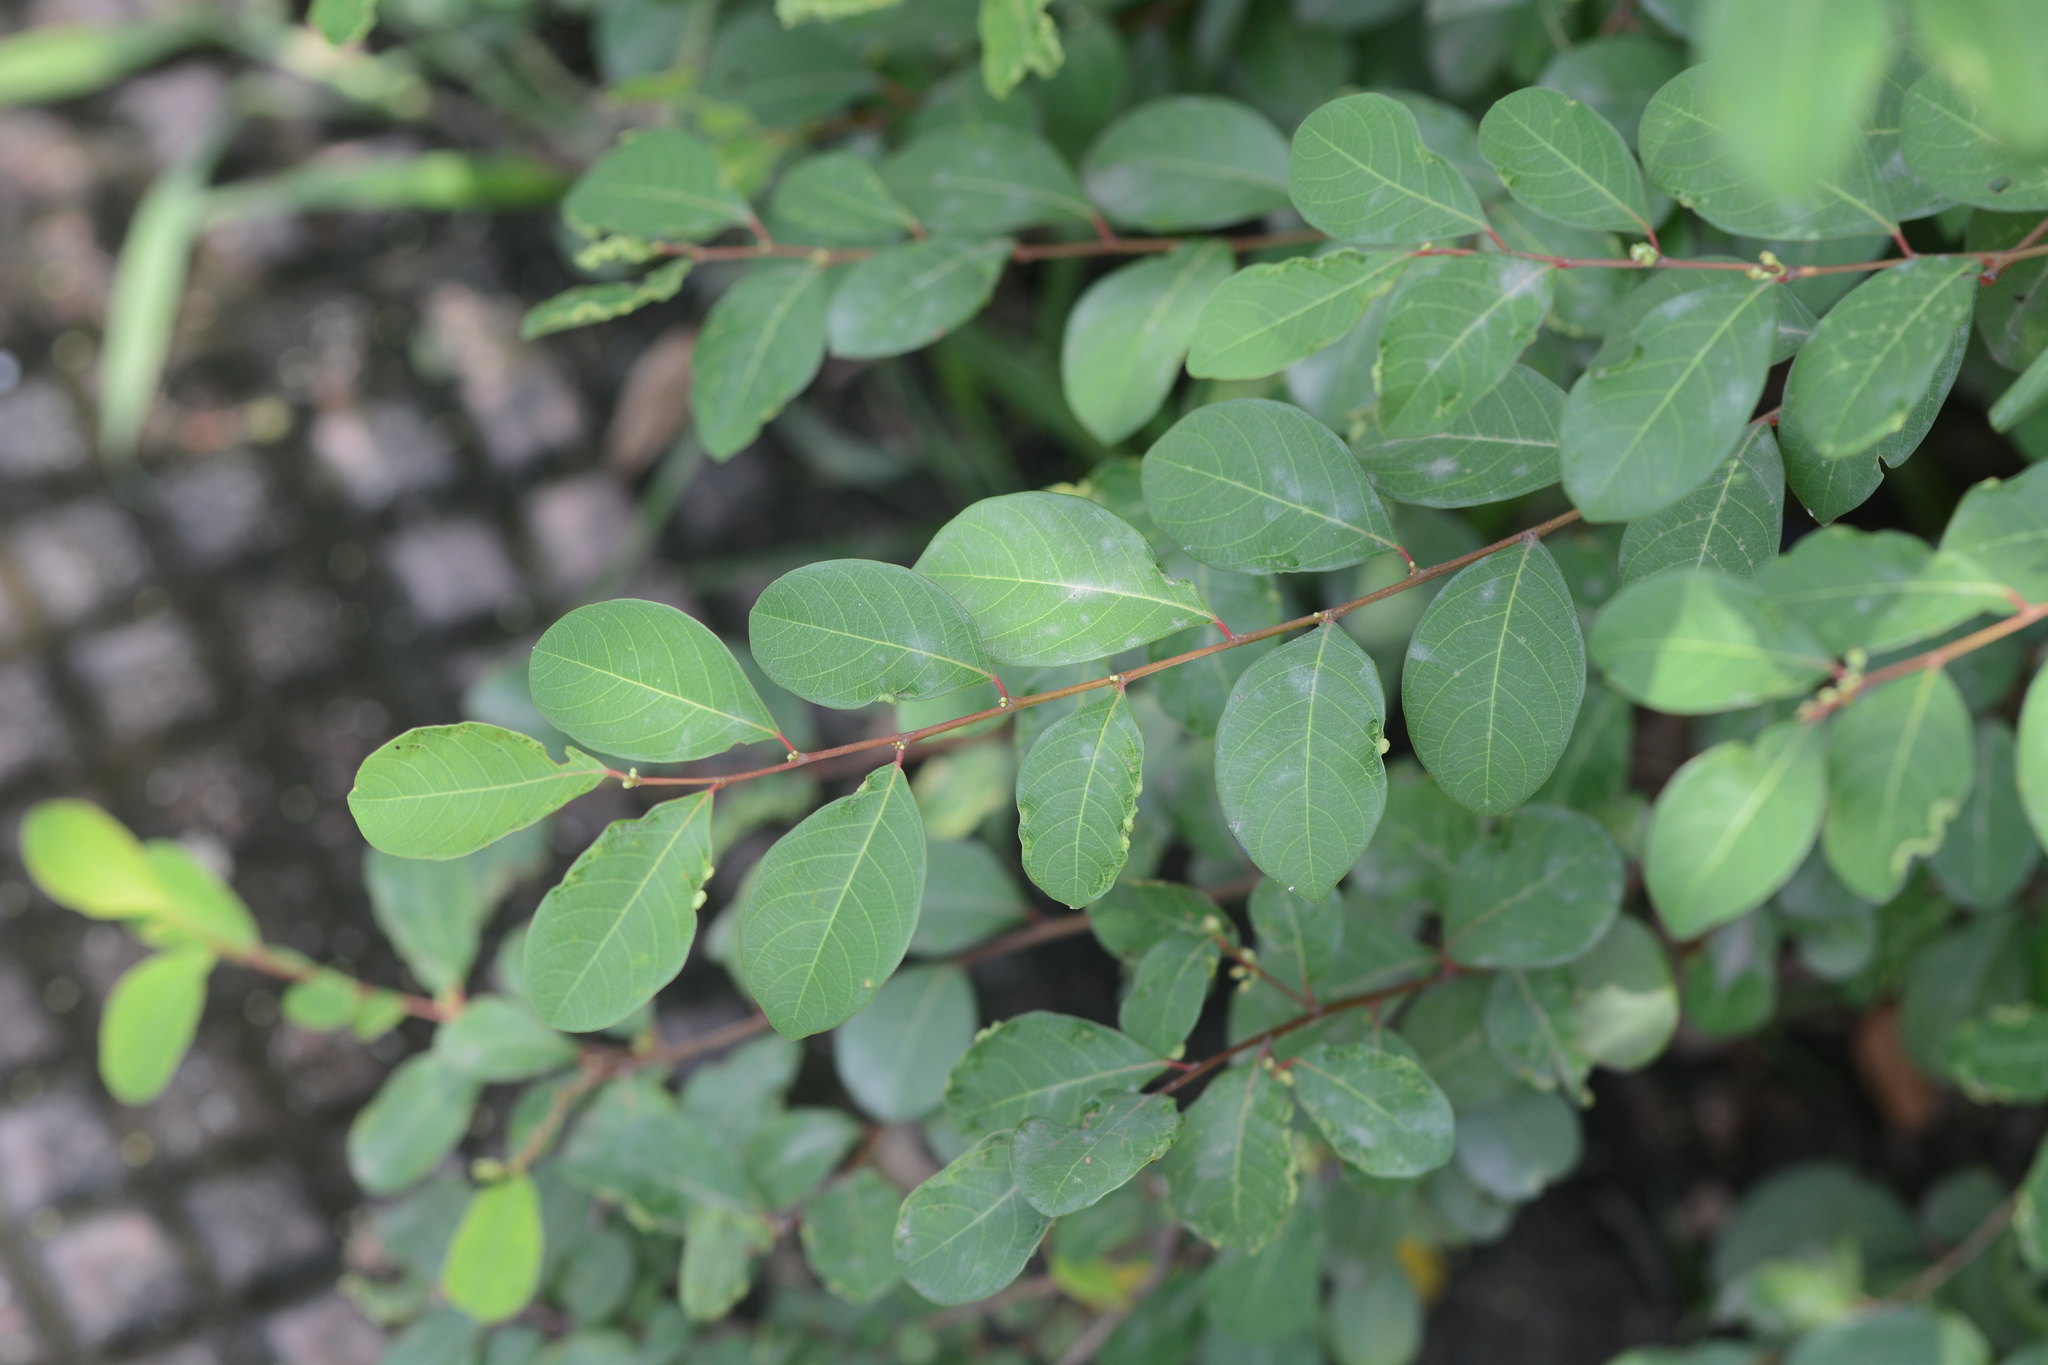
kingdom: Plantae
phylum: Tracheophyta
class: Magnoliopsida
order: Malpighiales
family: Phyllanthaceae
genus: Flueggea
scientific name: Flueggea leucopyrus
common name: Bushweed
